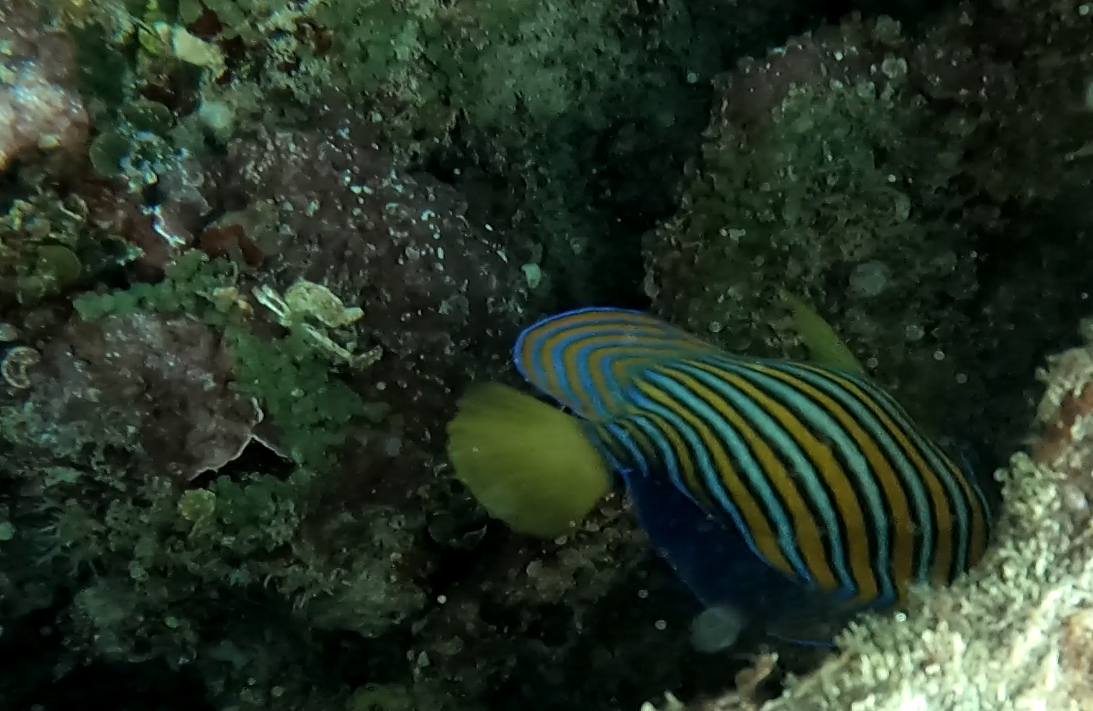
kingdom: Animalia
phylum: Chordata
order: Perciformes
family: Pomacanthidae
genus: Pygoplites
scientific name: Pygoplites diacanthus
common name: Regal angelfish
